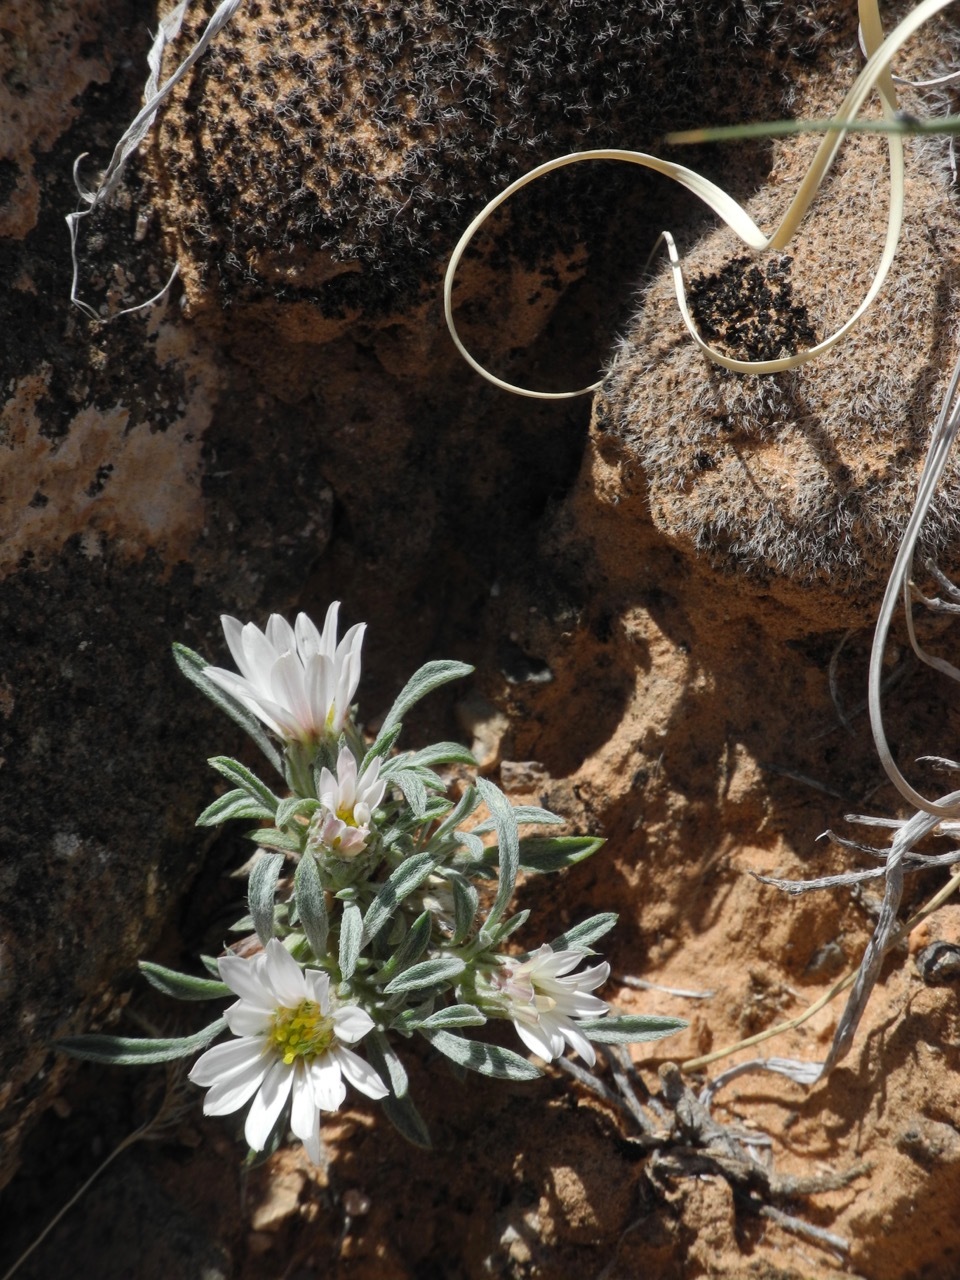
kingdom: Plantae
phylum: Tracheophyta
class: Magnoliopsida
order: Asterales
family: Asteraceae
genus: Townsendia
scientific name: Townsendia incana
